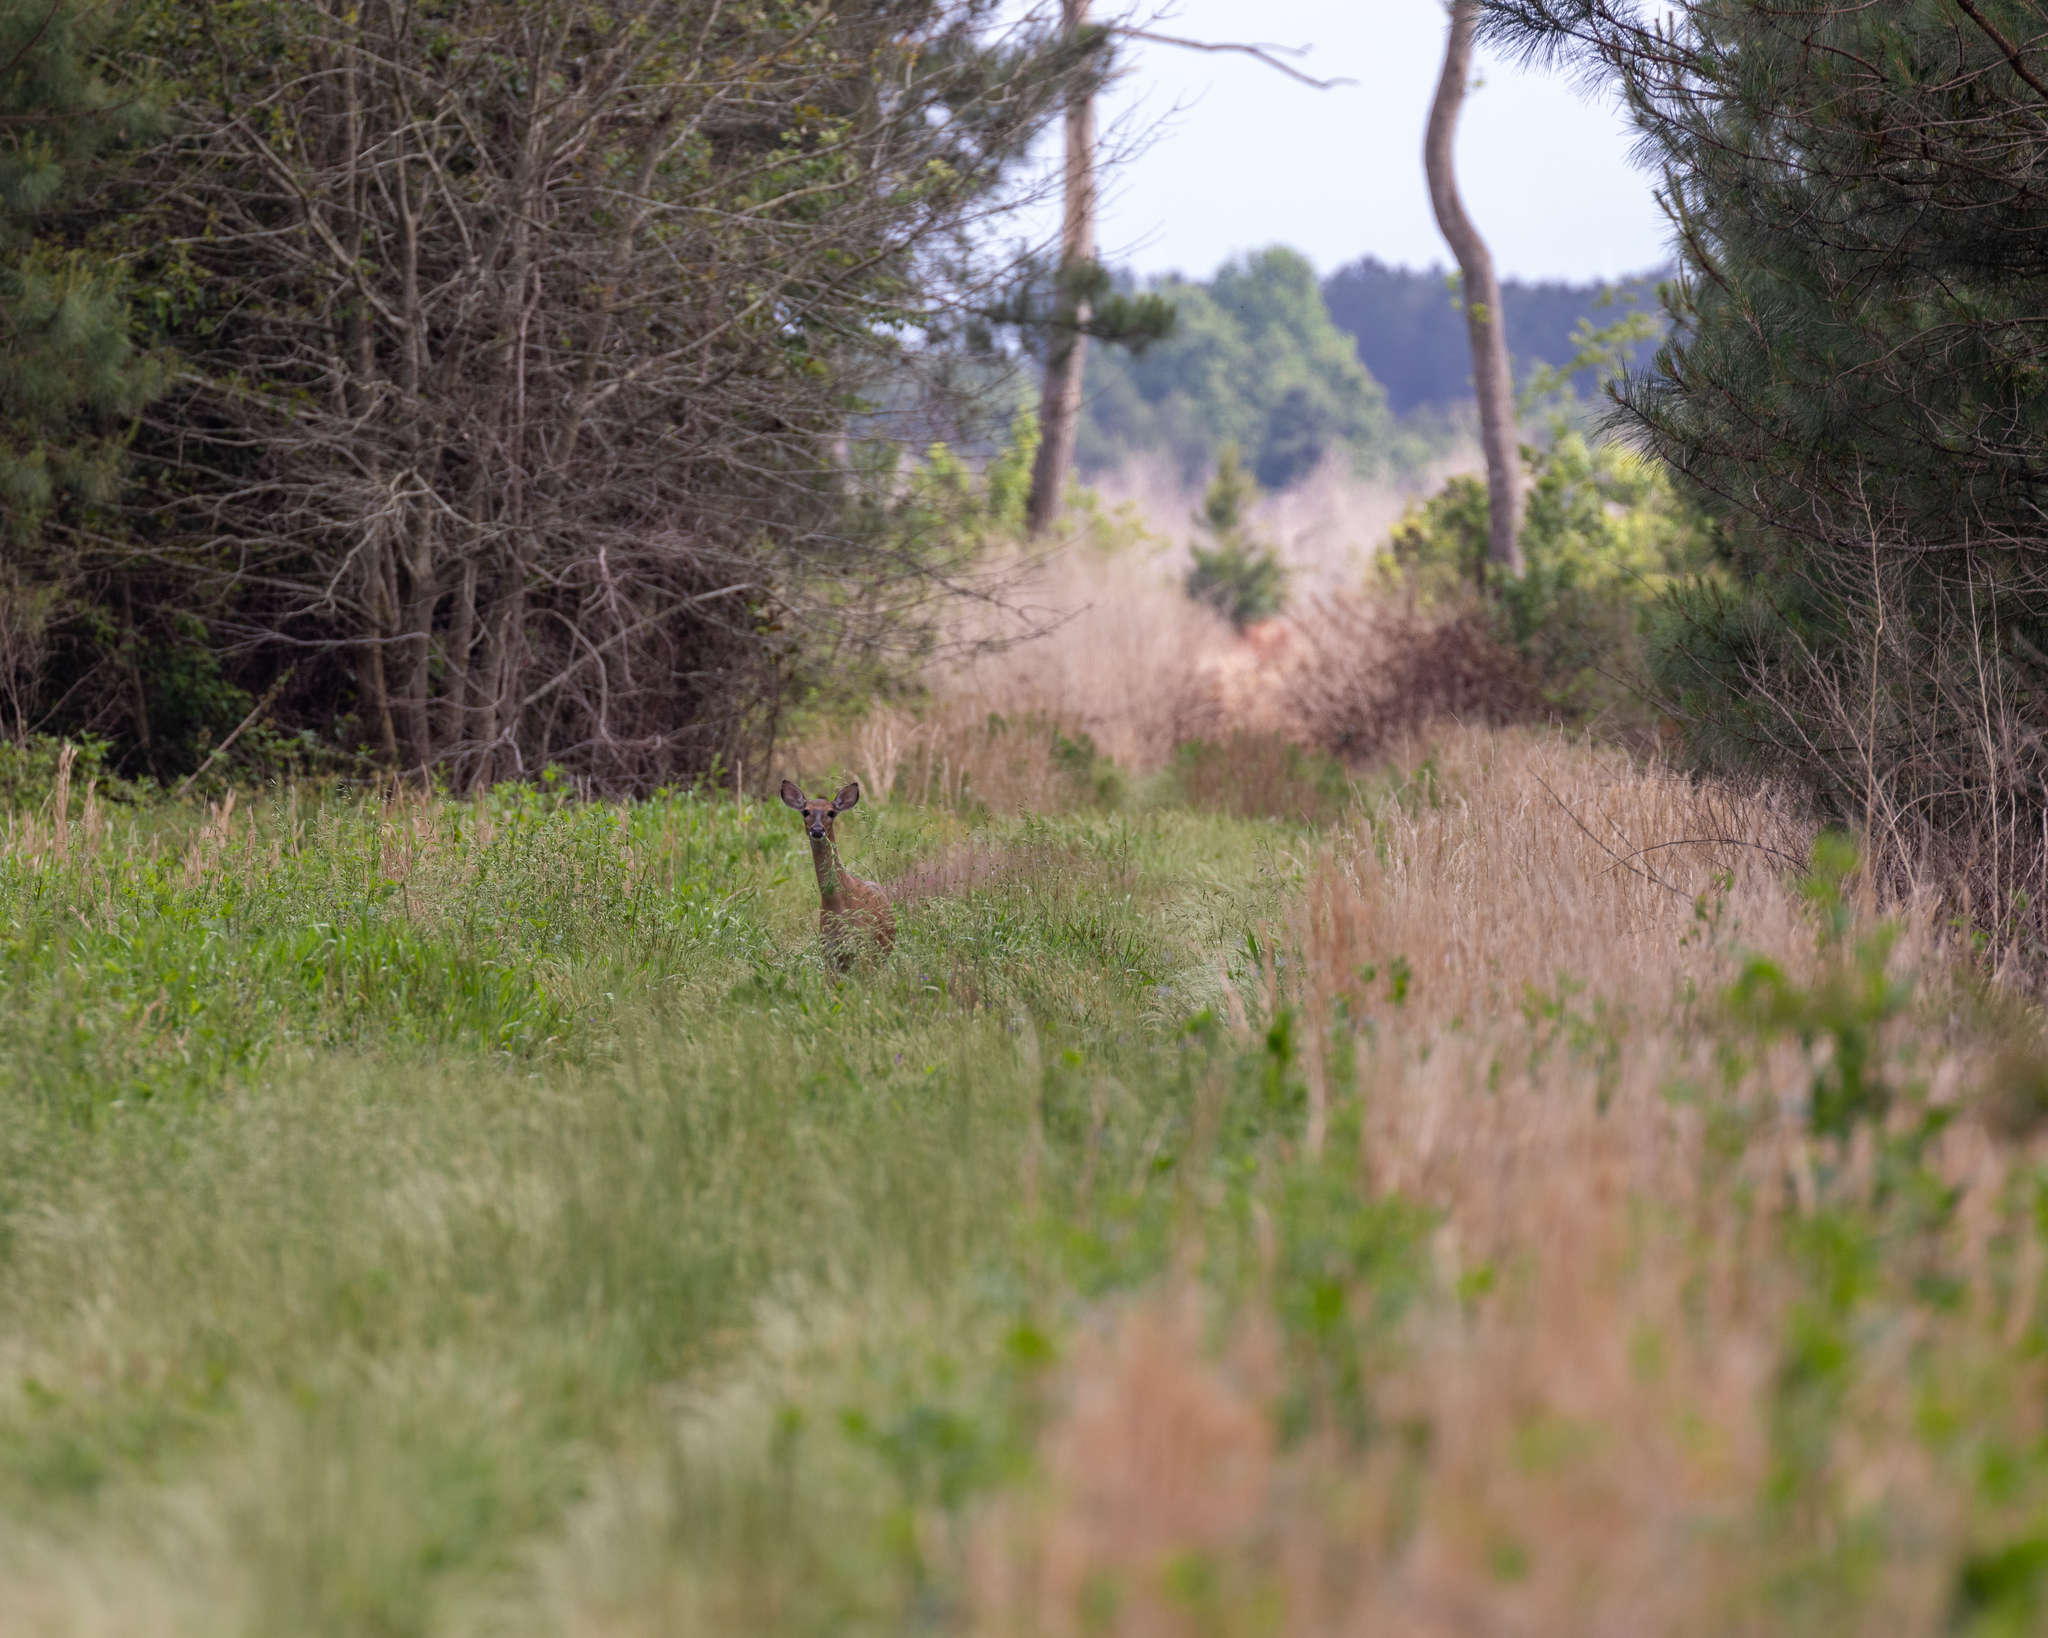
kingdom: Animalia
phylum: Chordata
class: Mammalia
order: Artiodactyla
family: Cervidae
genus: Odocoileus
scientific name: Odocoileus virginianus
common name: White-tailed deer
